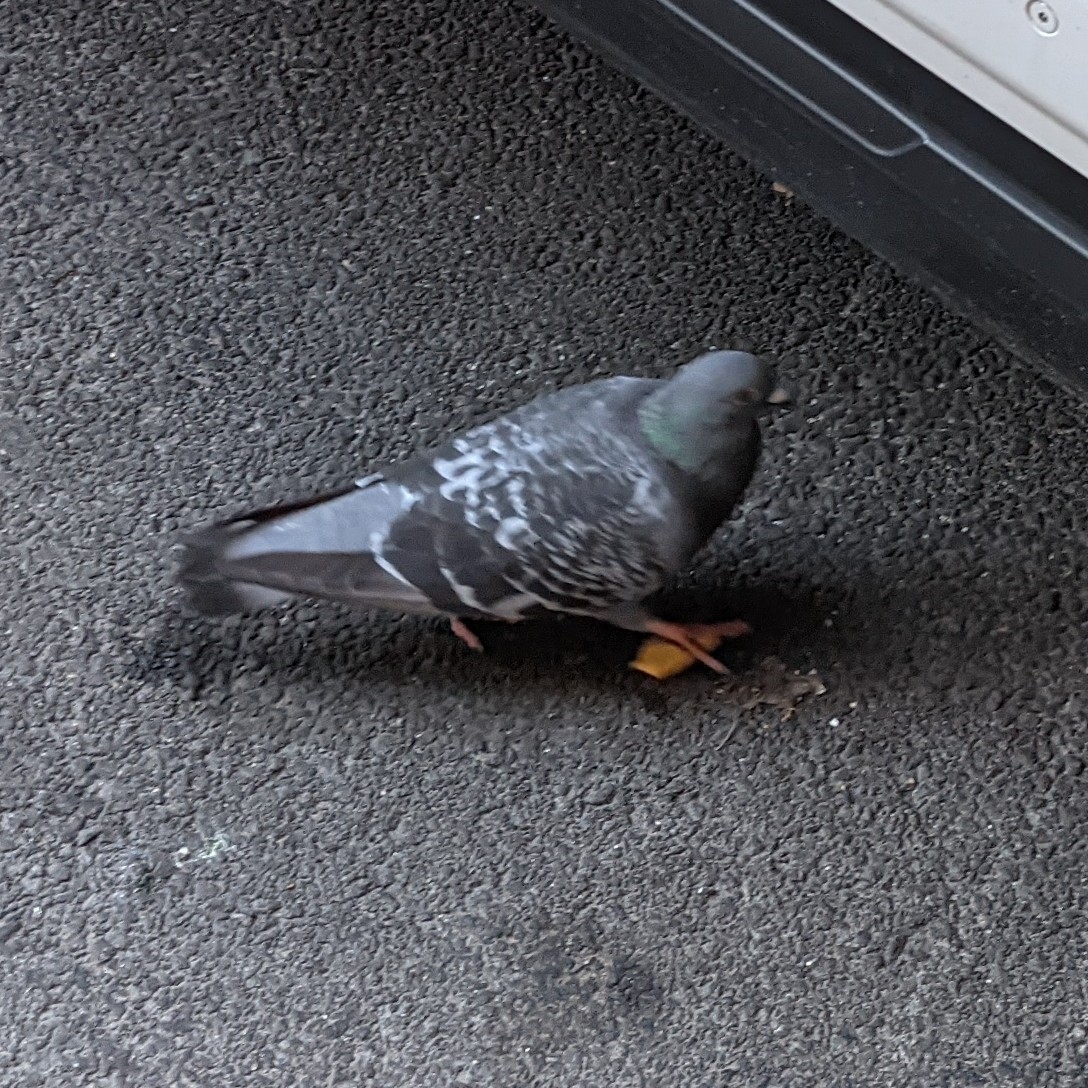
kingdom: Animalia
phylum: Chordata
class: Aves
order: Columbiformes
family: Columbidae
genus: Columba
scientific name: Columba livia
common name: Rock pigeon
